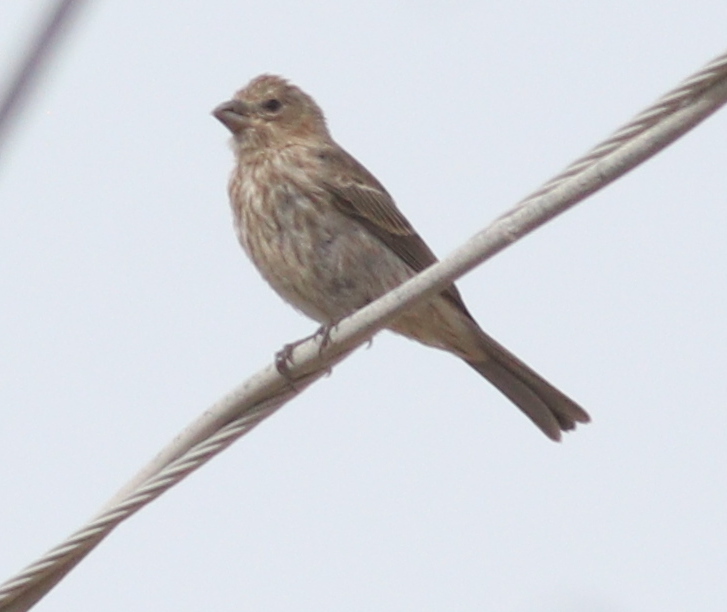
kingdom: Animalia
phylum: Chordata
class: Aves
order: Passeriformes
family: Fringillidae
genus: Haemorhous
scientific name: Haemorhous mexicanus
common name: House finch
